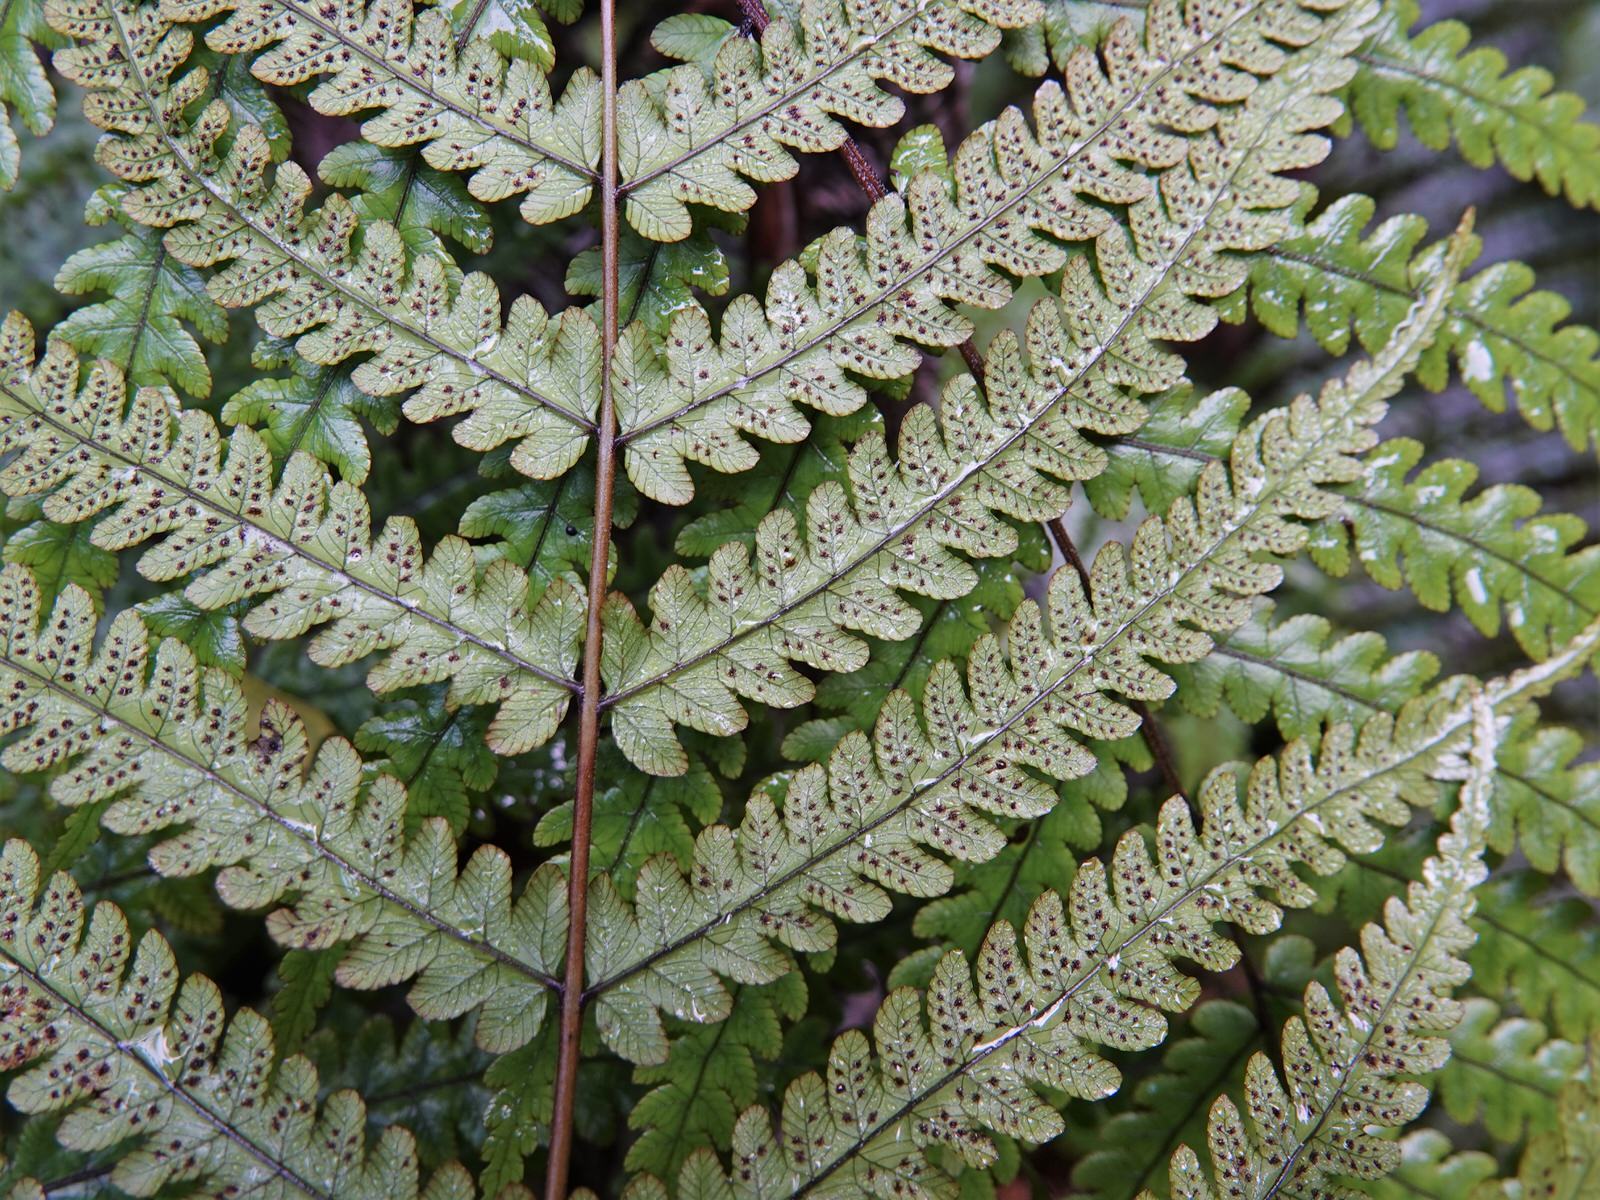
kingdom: Plantae
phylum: Tracheophyta
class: Polypodiopsida
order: Polypodiales
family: Thelypteridaceae
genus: Pakau
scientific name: Pakau pennigera
